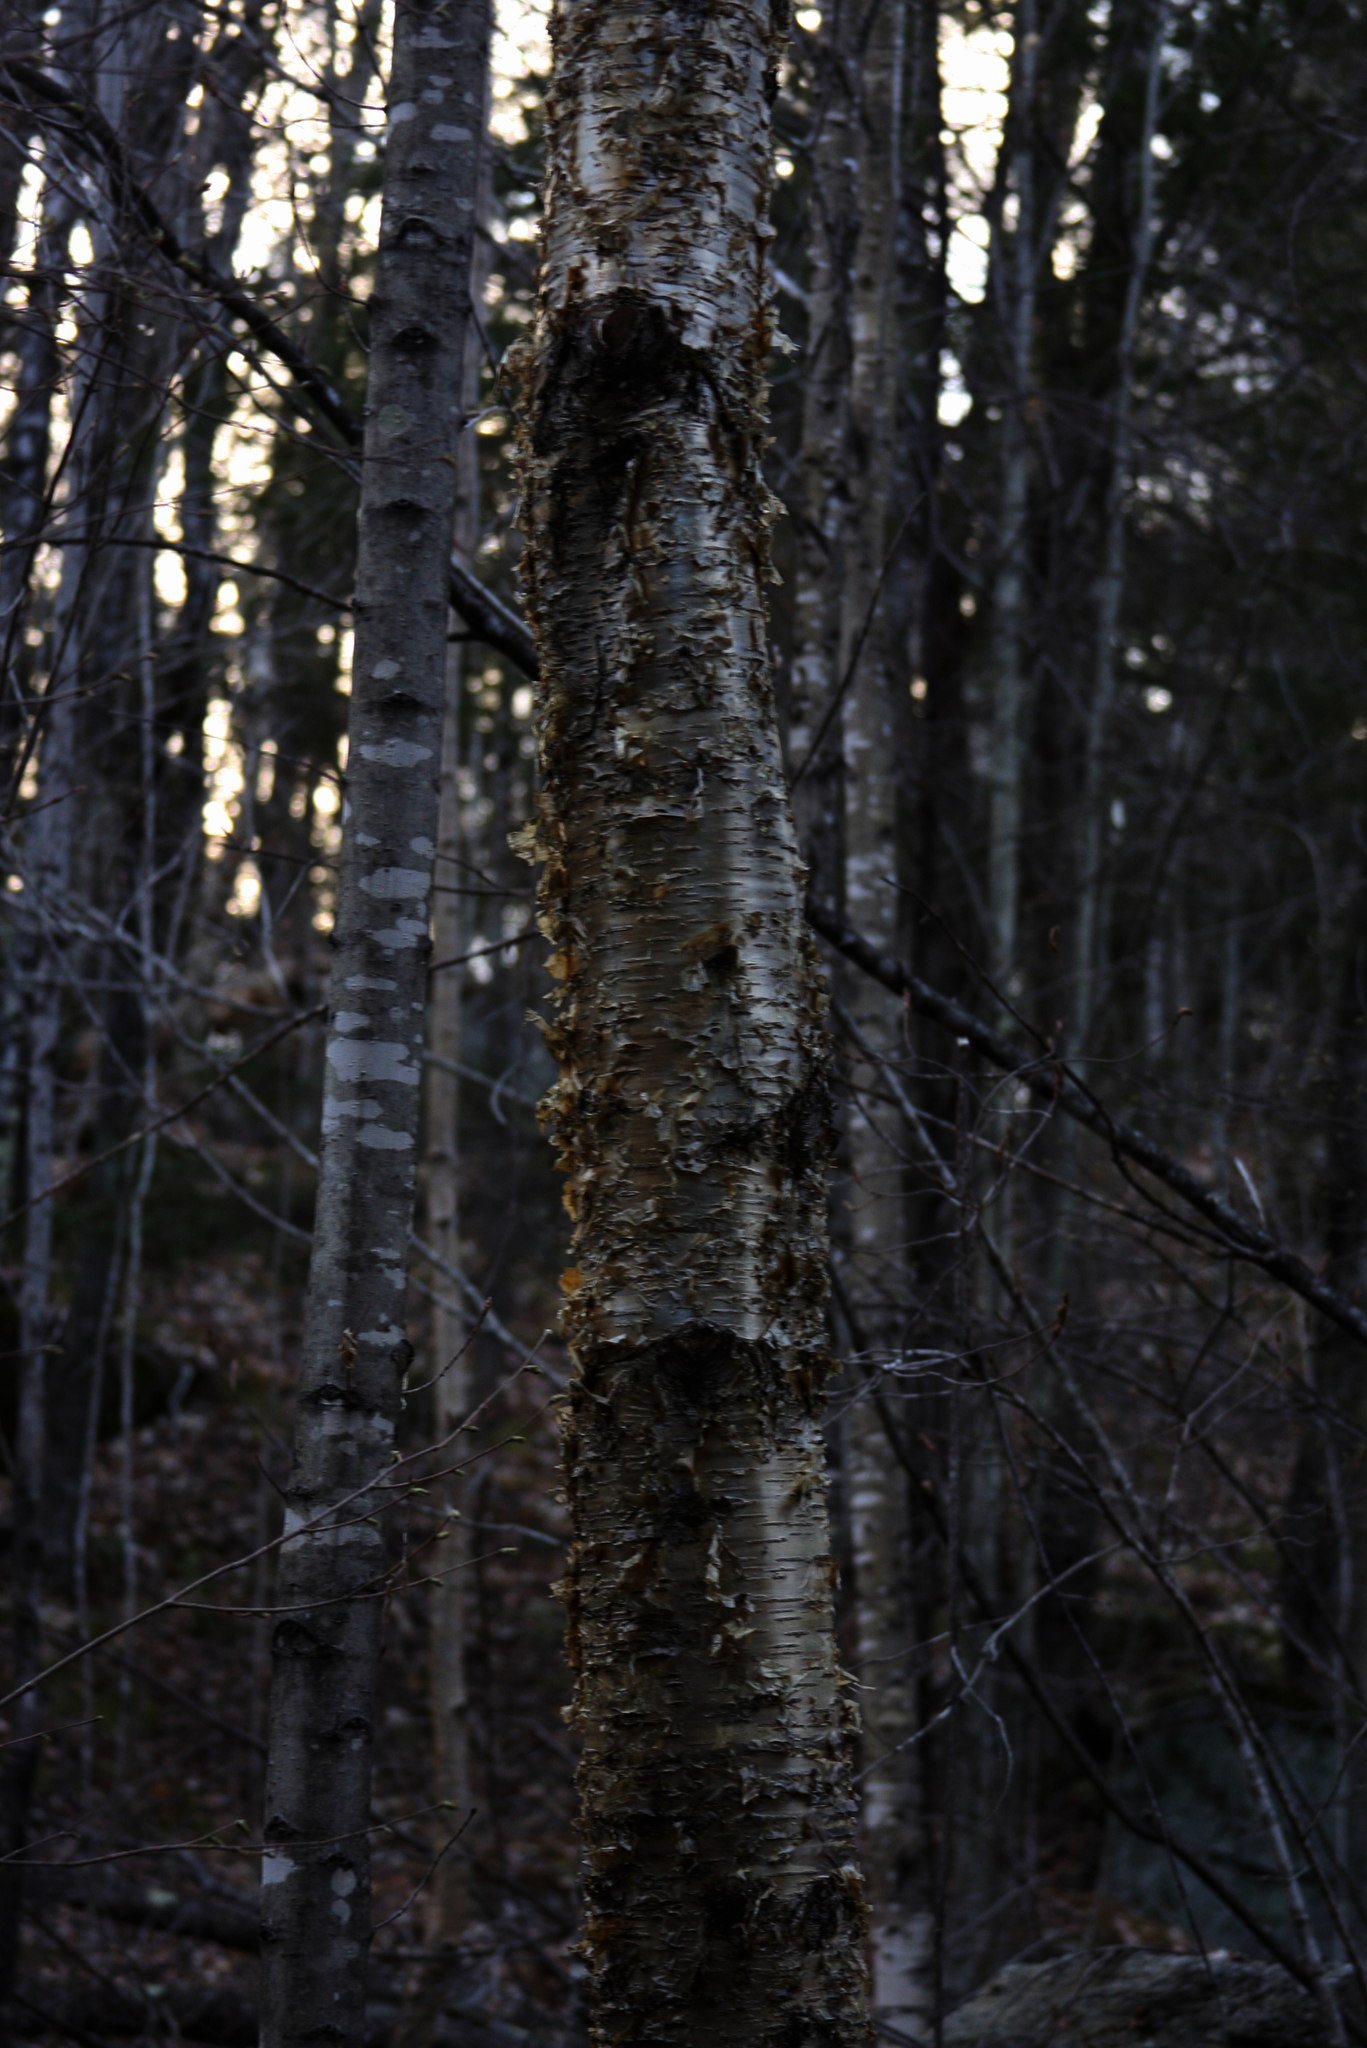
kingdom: Plantae
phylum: Tracheophyta
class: Magnoliopsida
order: Fagales
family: Betulaceae
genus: Betula
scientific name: Betula alleghaniensis
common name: Yellow birch
